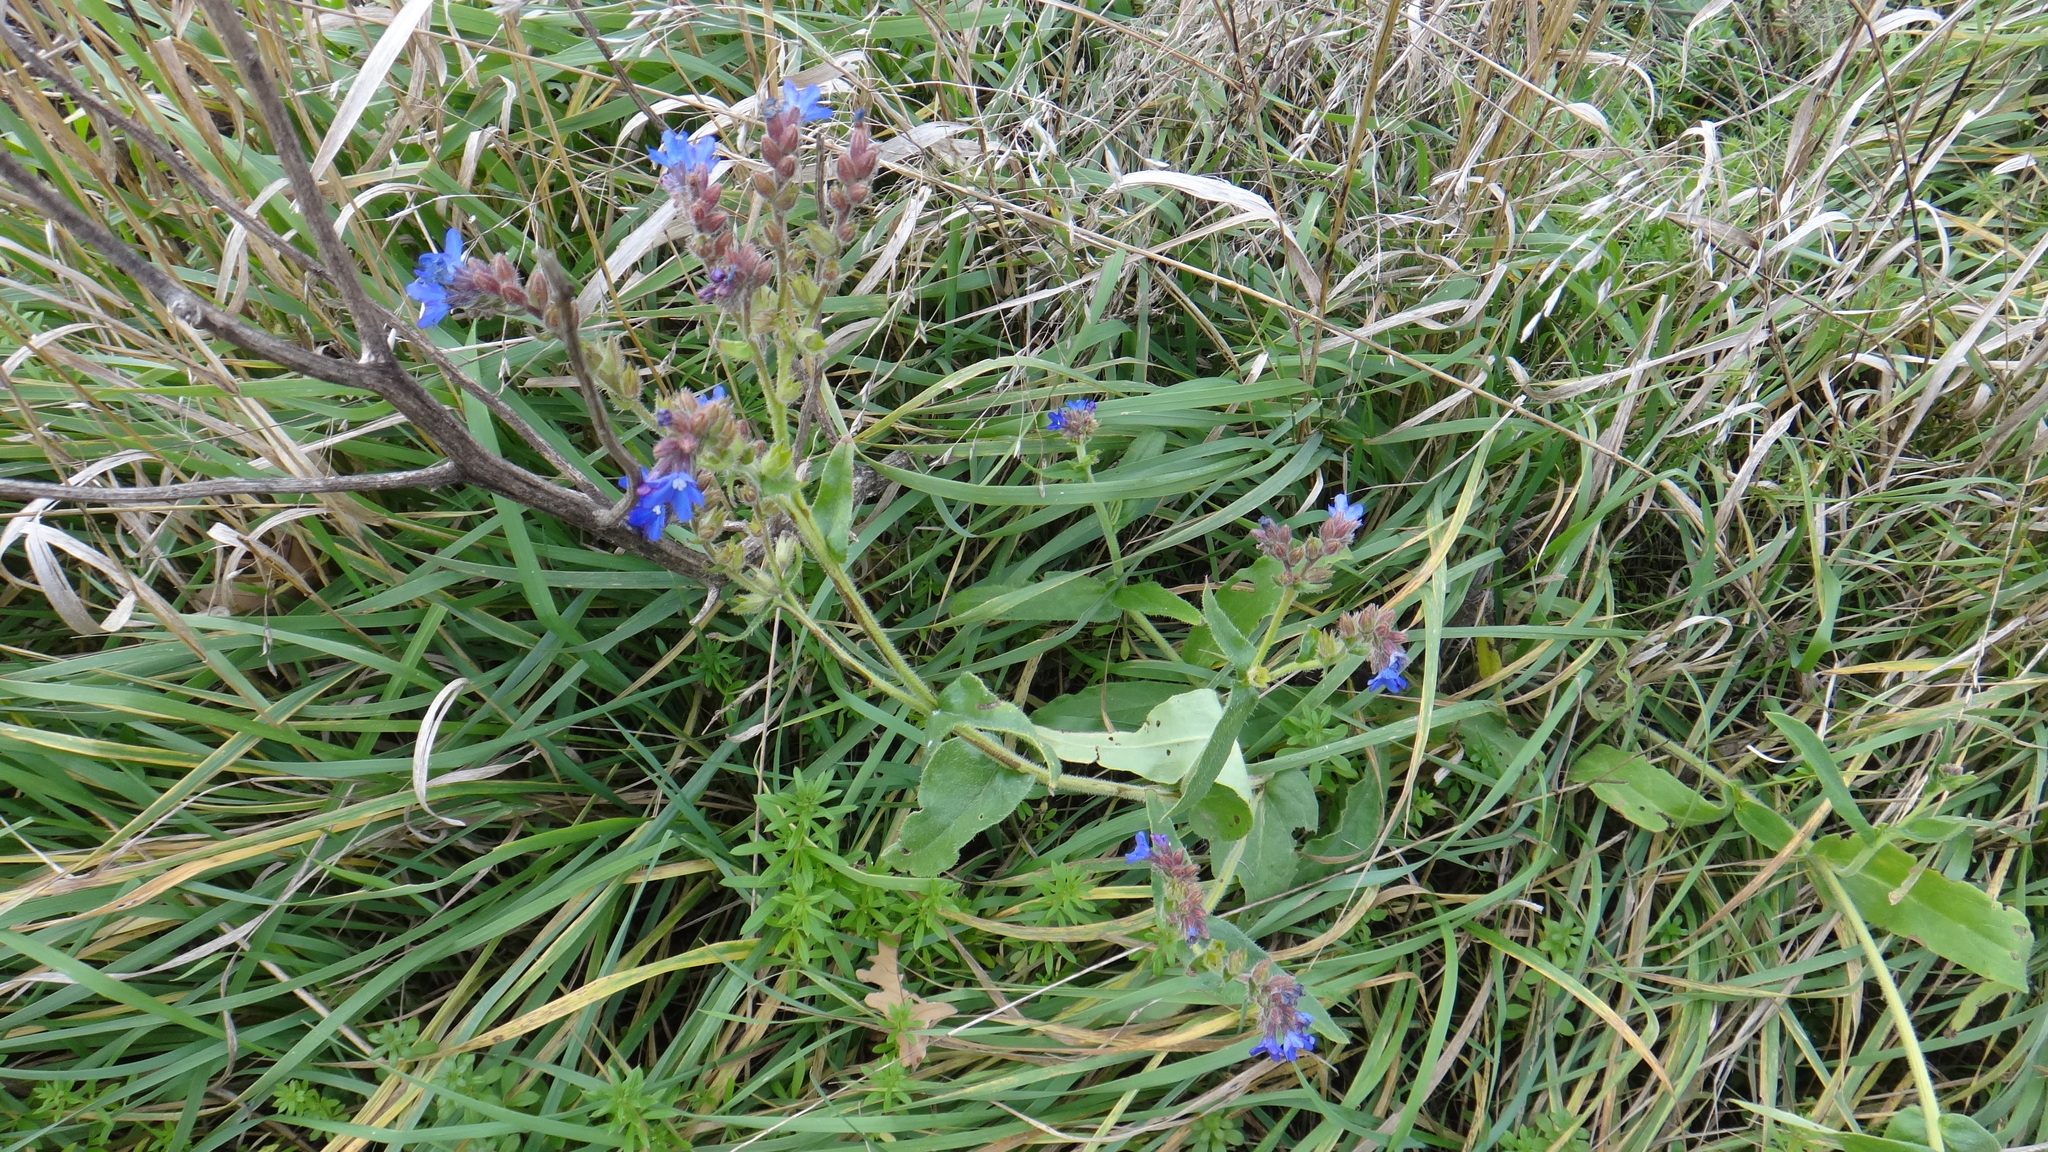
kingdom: Plantae
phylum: Tracheophyta
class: Magnoliopsida
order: Boraginales
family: Boraginaceae
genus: Anchusa
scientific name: Anchusa officinalis
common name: Alkanet
